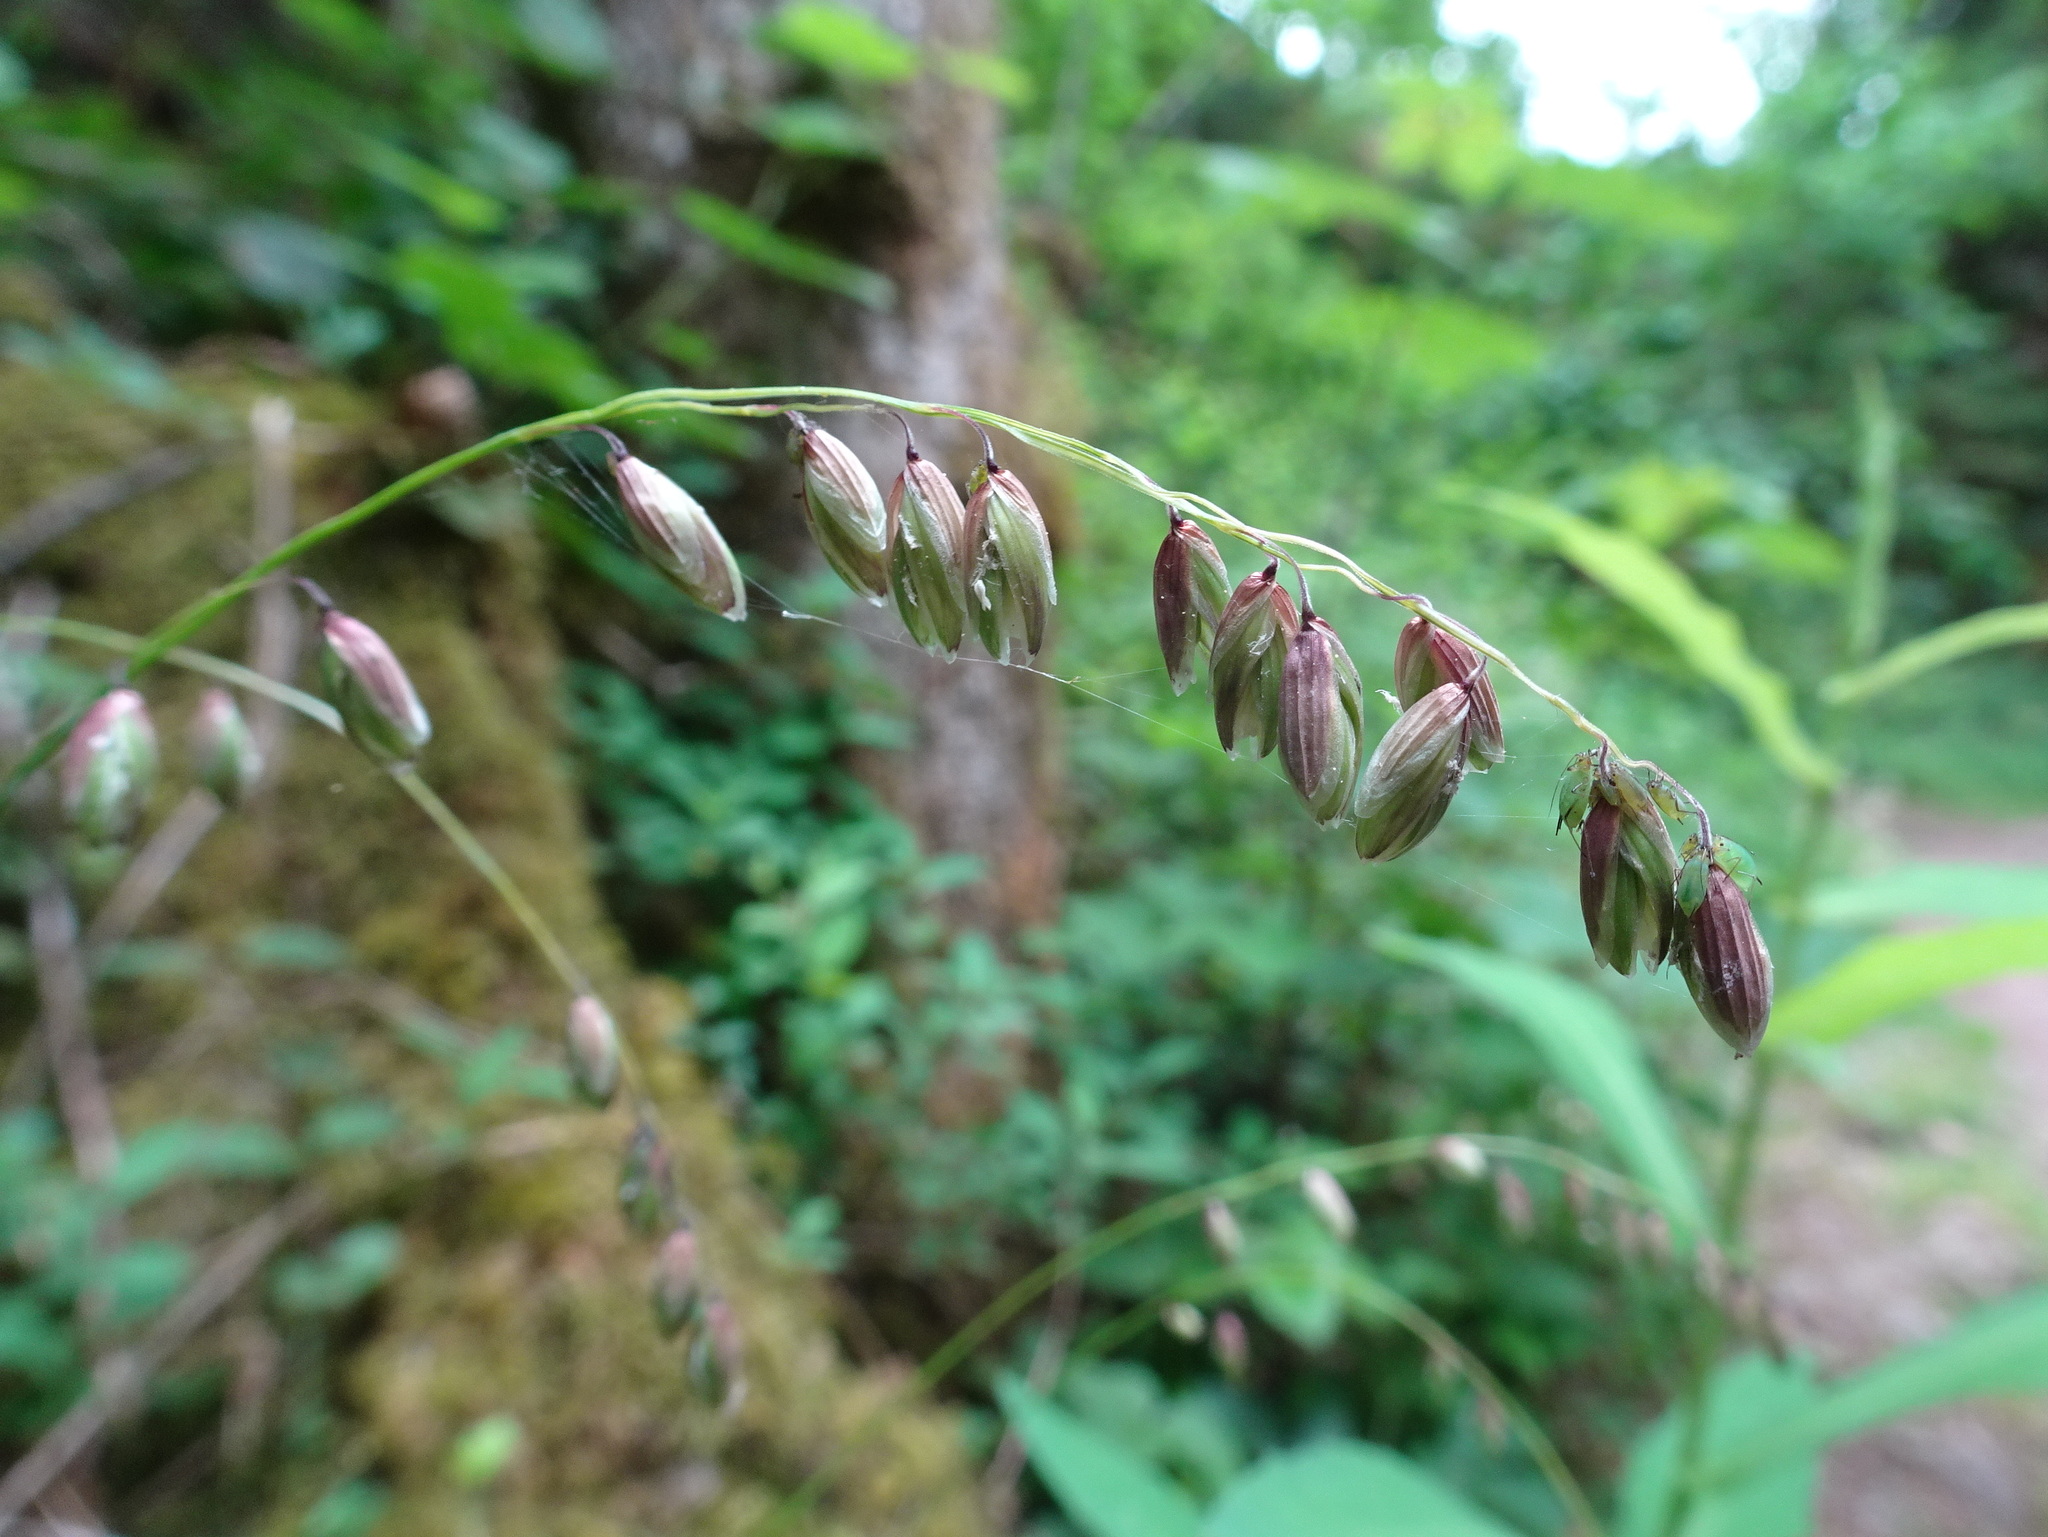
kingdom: Plantae
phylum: Tracheophyta
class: Liliopsida
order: Poales
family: Poaceae
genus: Melica
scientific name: Melica nutans
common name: Mountain melick
